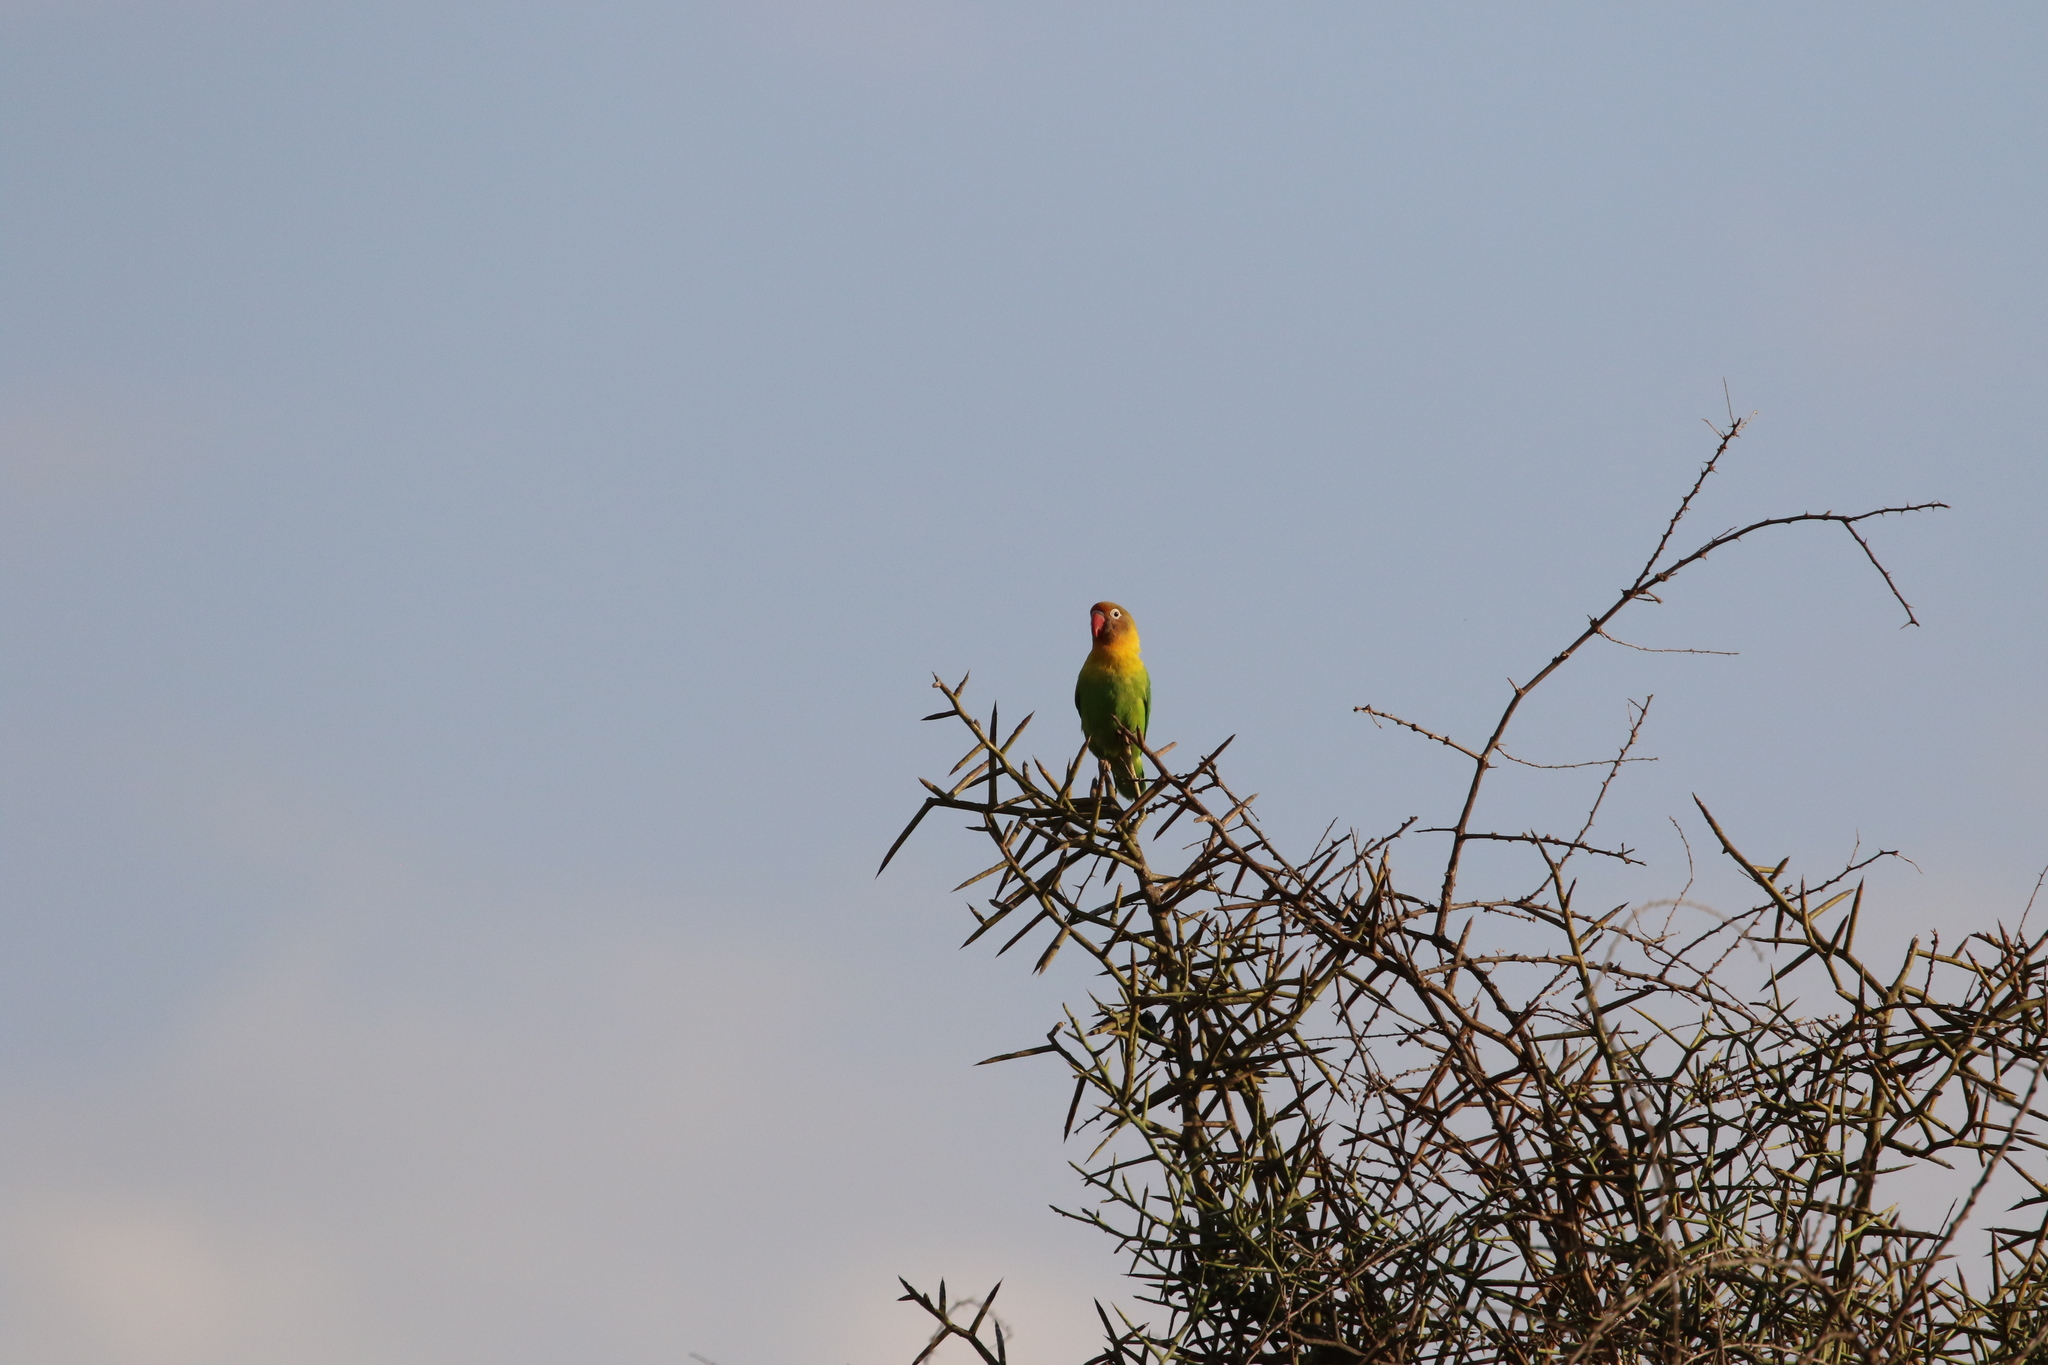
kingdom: Animalia
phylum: Chordata
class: Aves
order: Psittaciformes
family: Psittacidae
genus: Agapornis
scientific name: Agapornis
